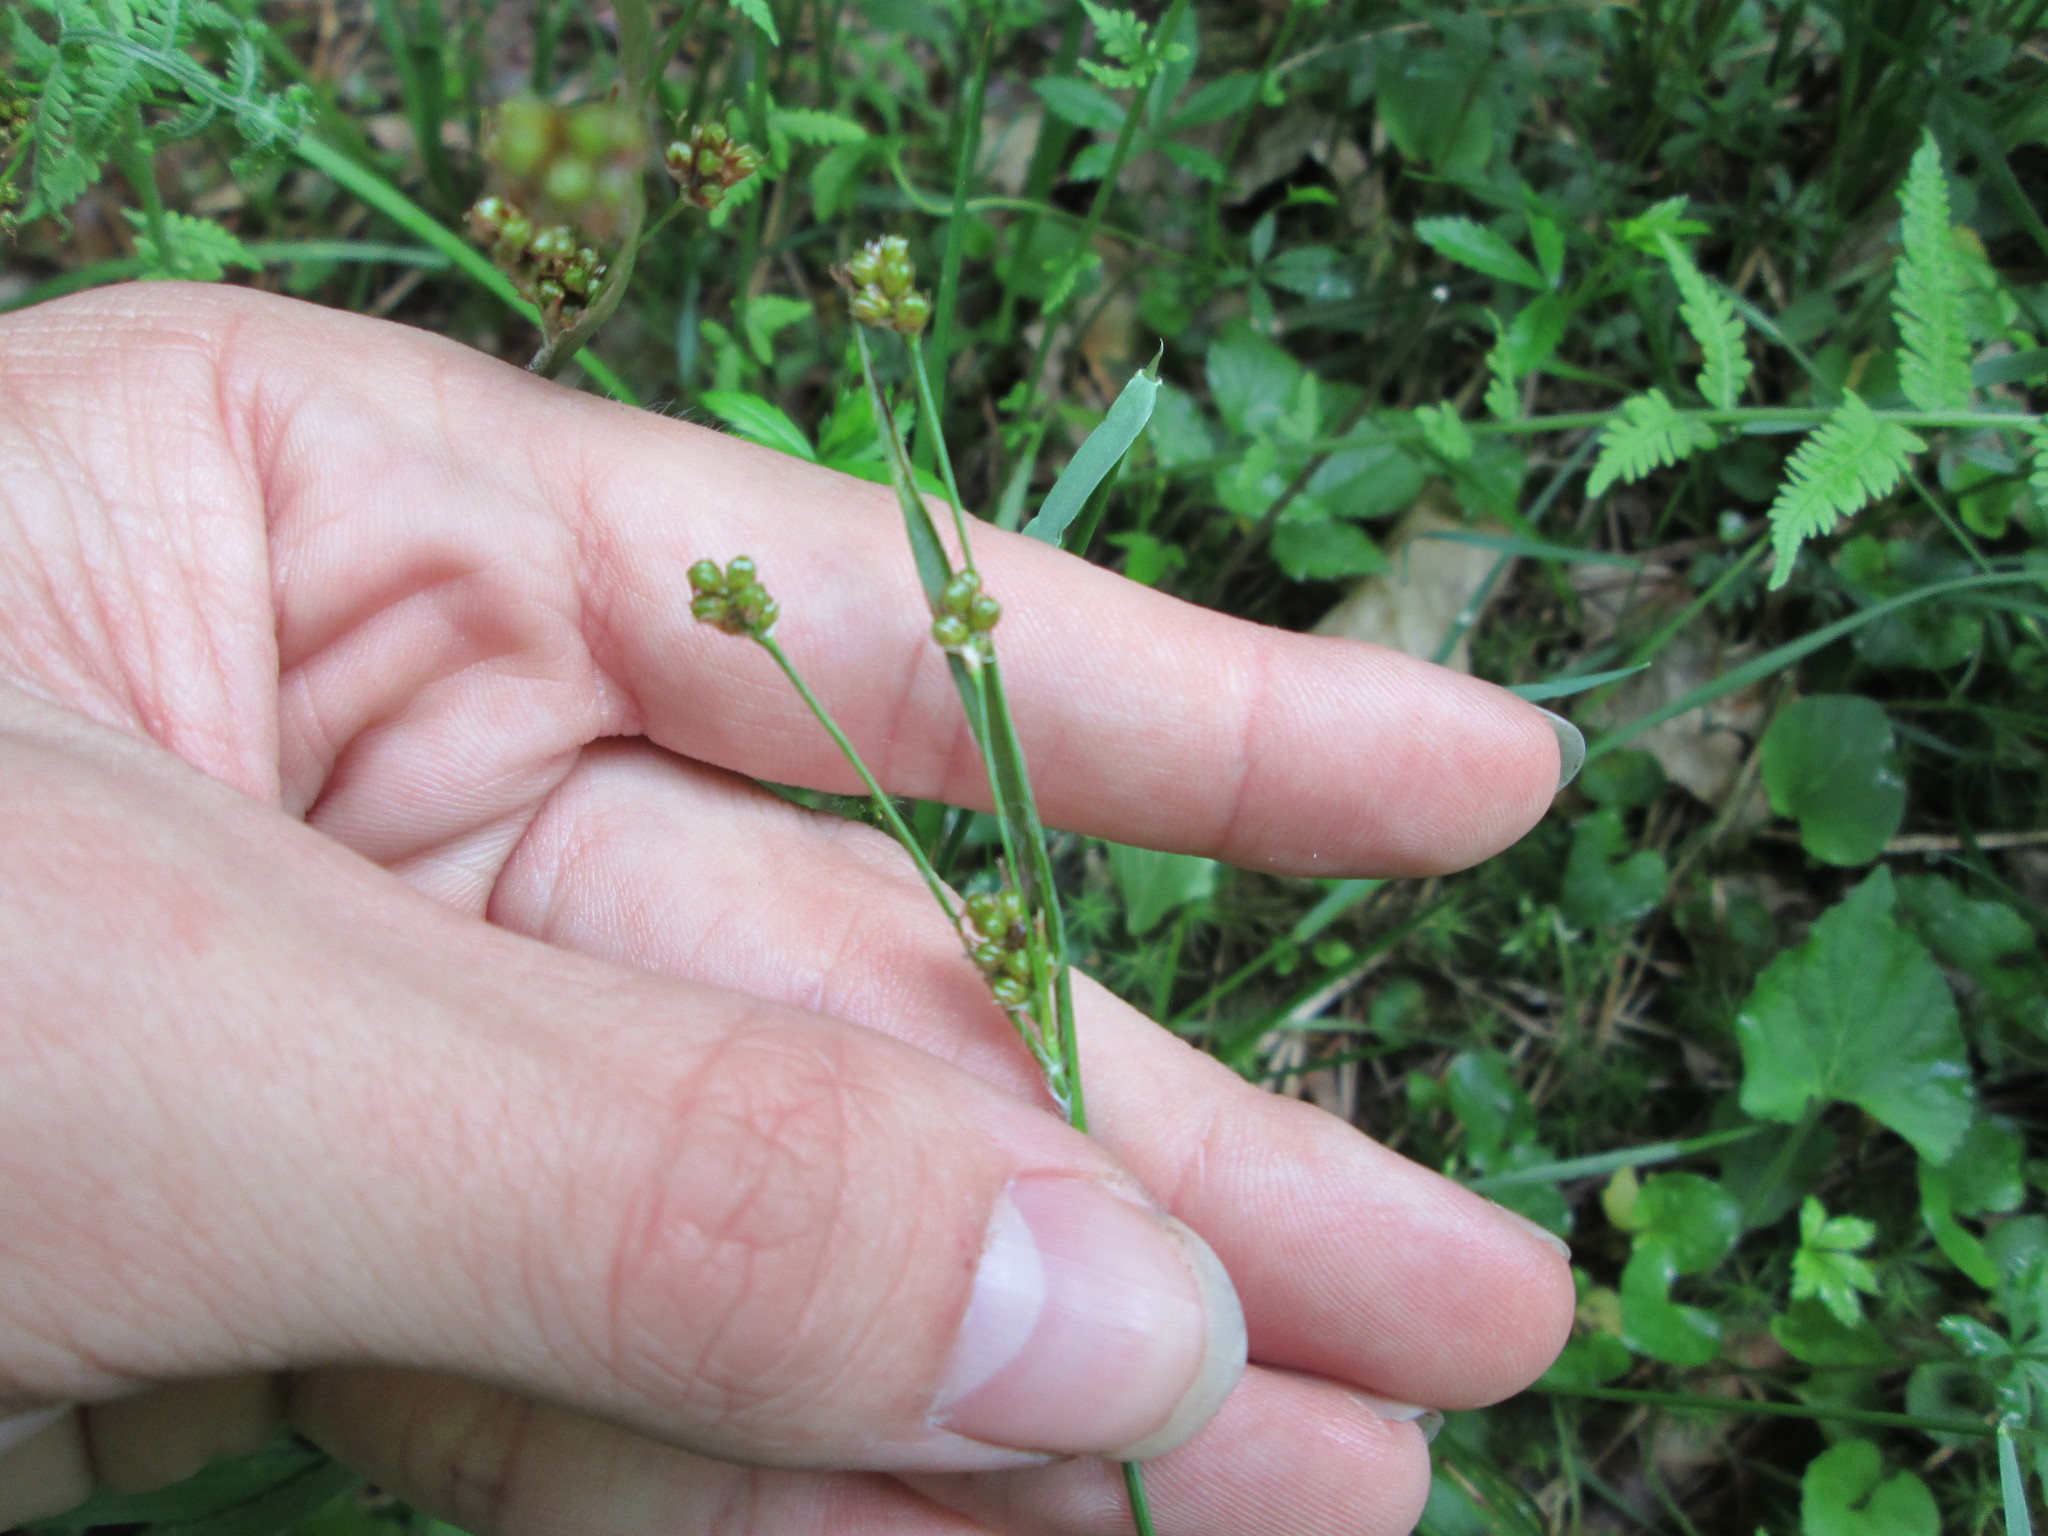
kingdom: Plantae
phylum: Tracheophyta
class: Liliopsida
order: Poales
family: Juncaceae
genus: Luzula
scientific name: Luzula multiflora
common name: Heath wood-rush
